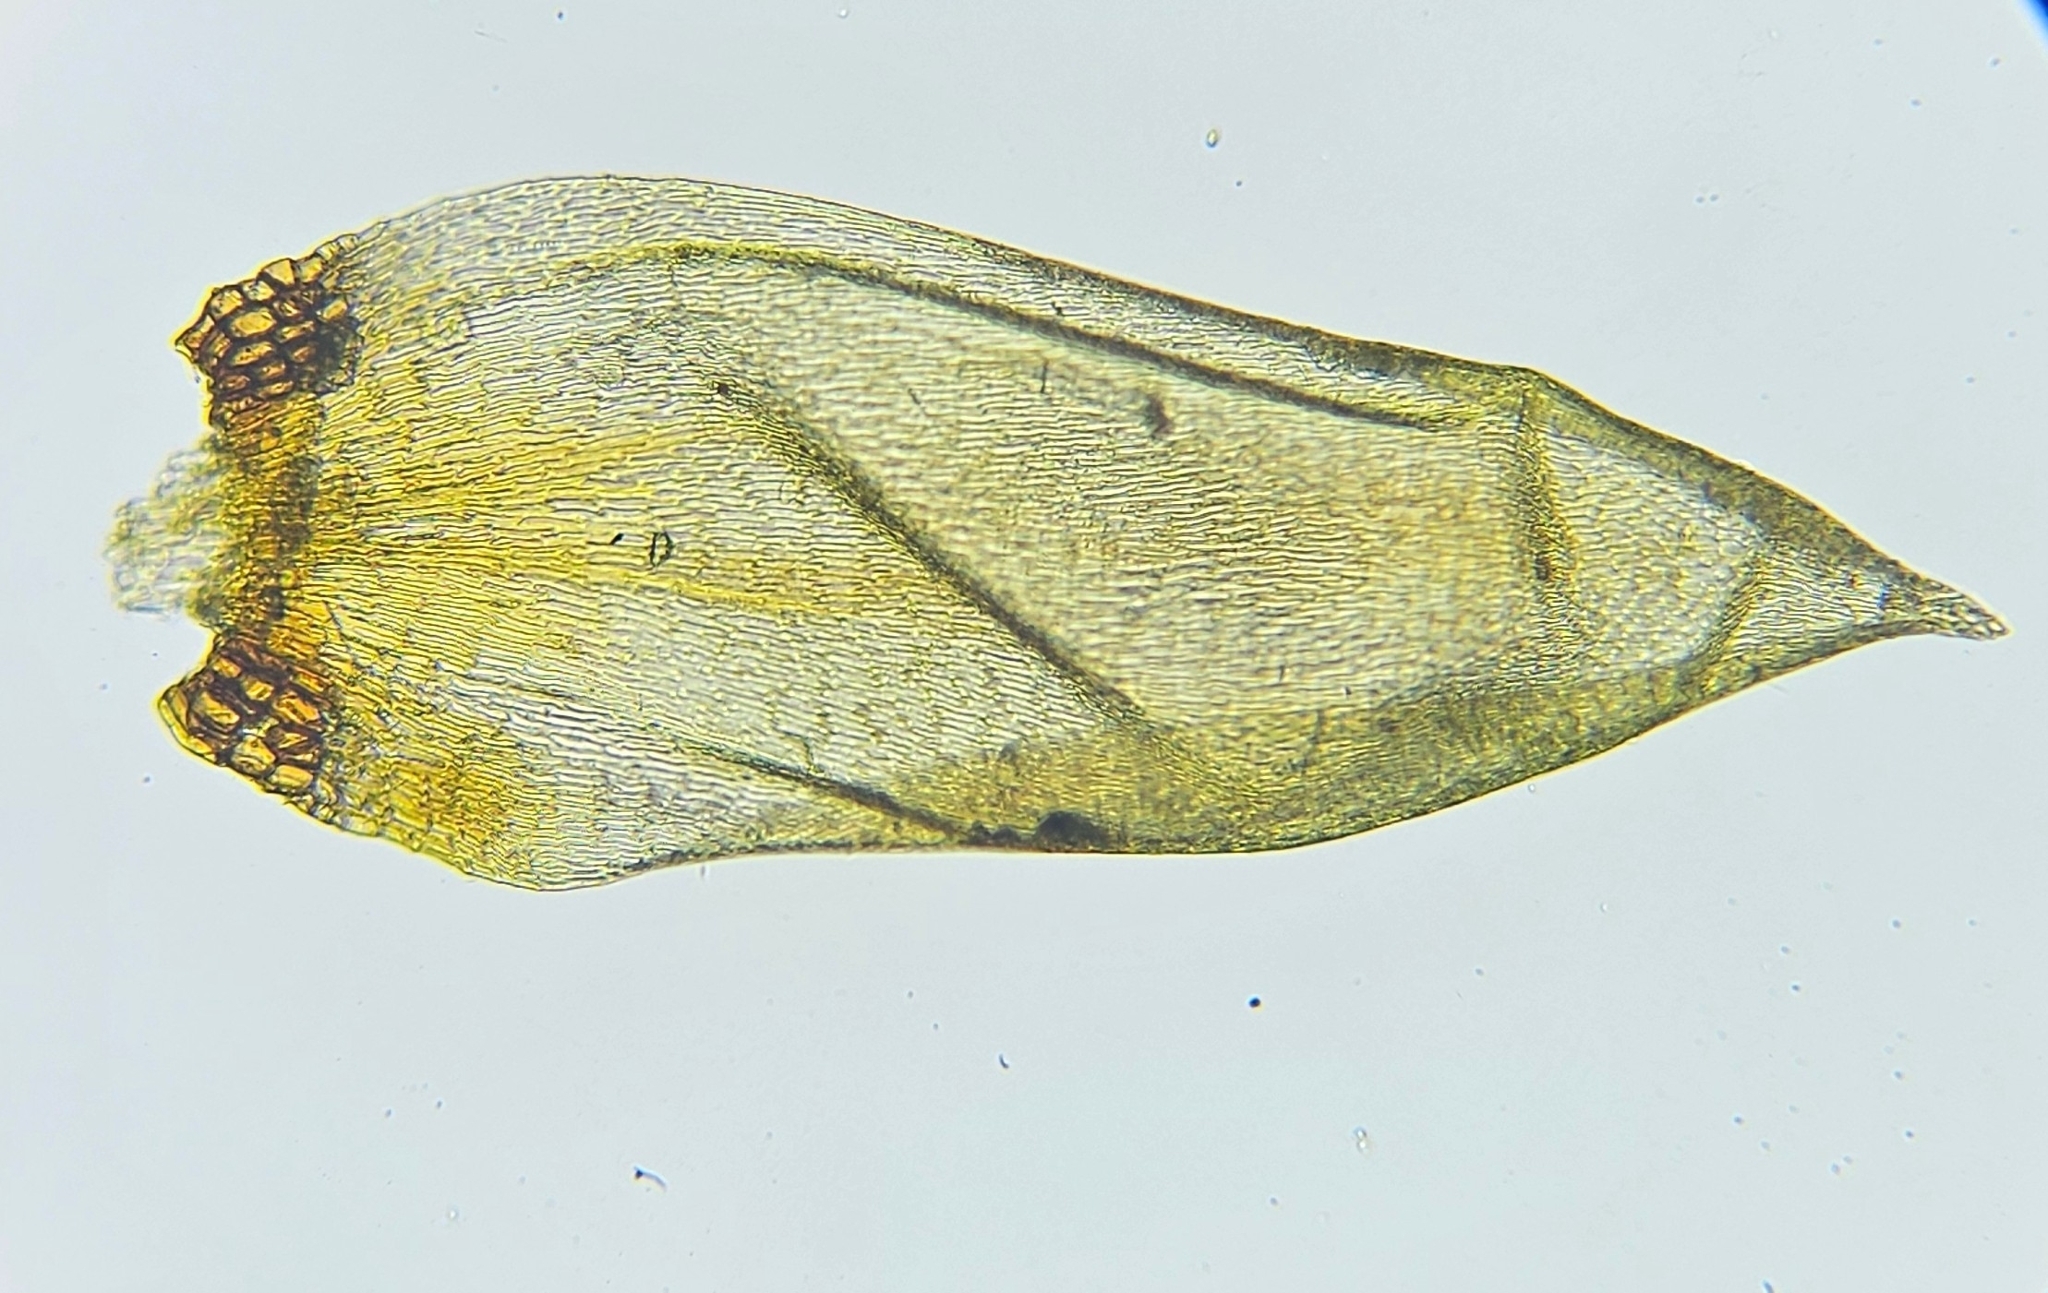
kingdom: Plantae
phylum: Bryophyta
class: Bryopsida
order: Hypnales
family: Pylaisiaceae
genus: Pseudohygrohypnum
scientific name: Pseudohygrohypnum eugyrium
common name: Western brook-moss
